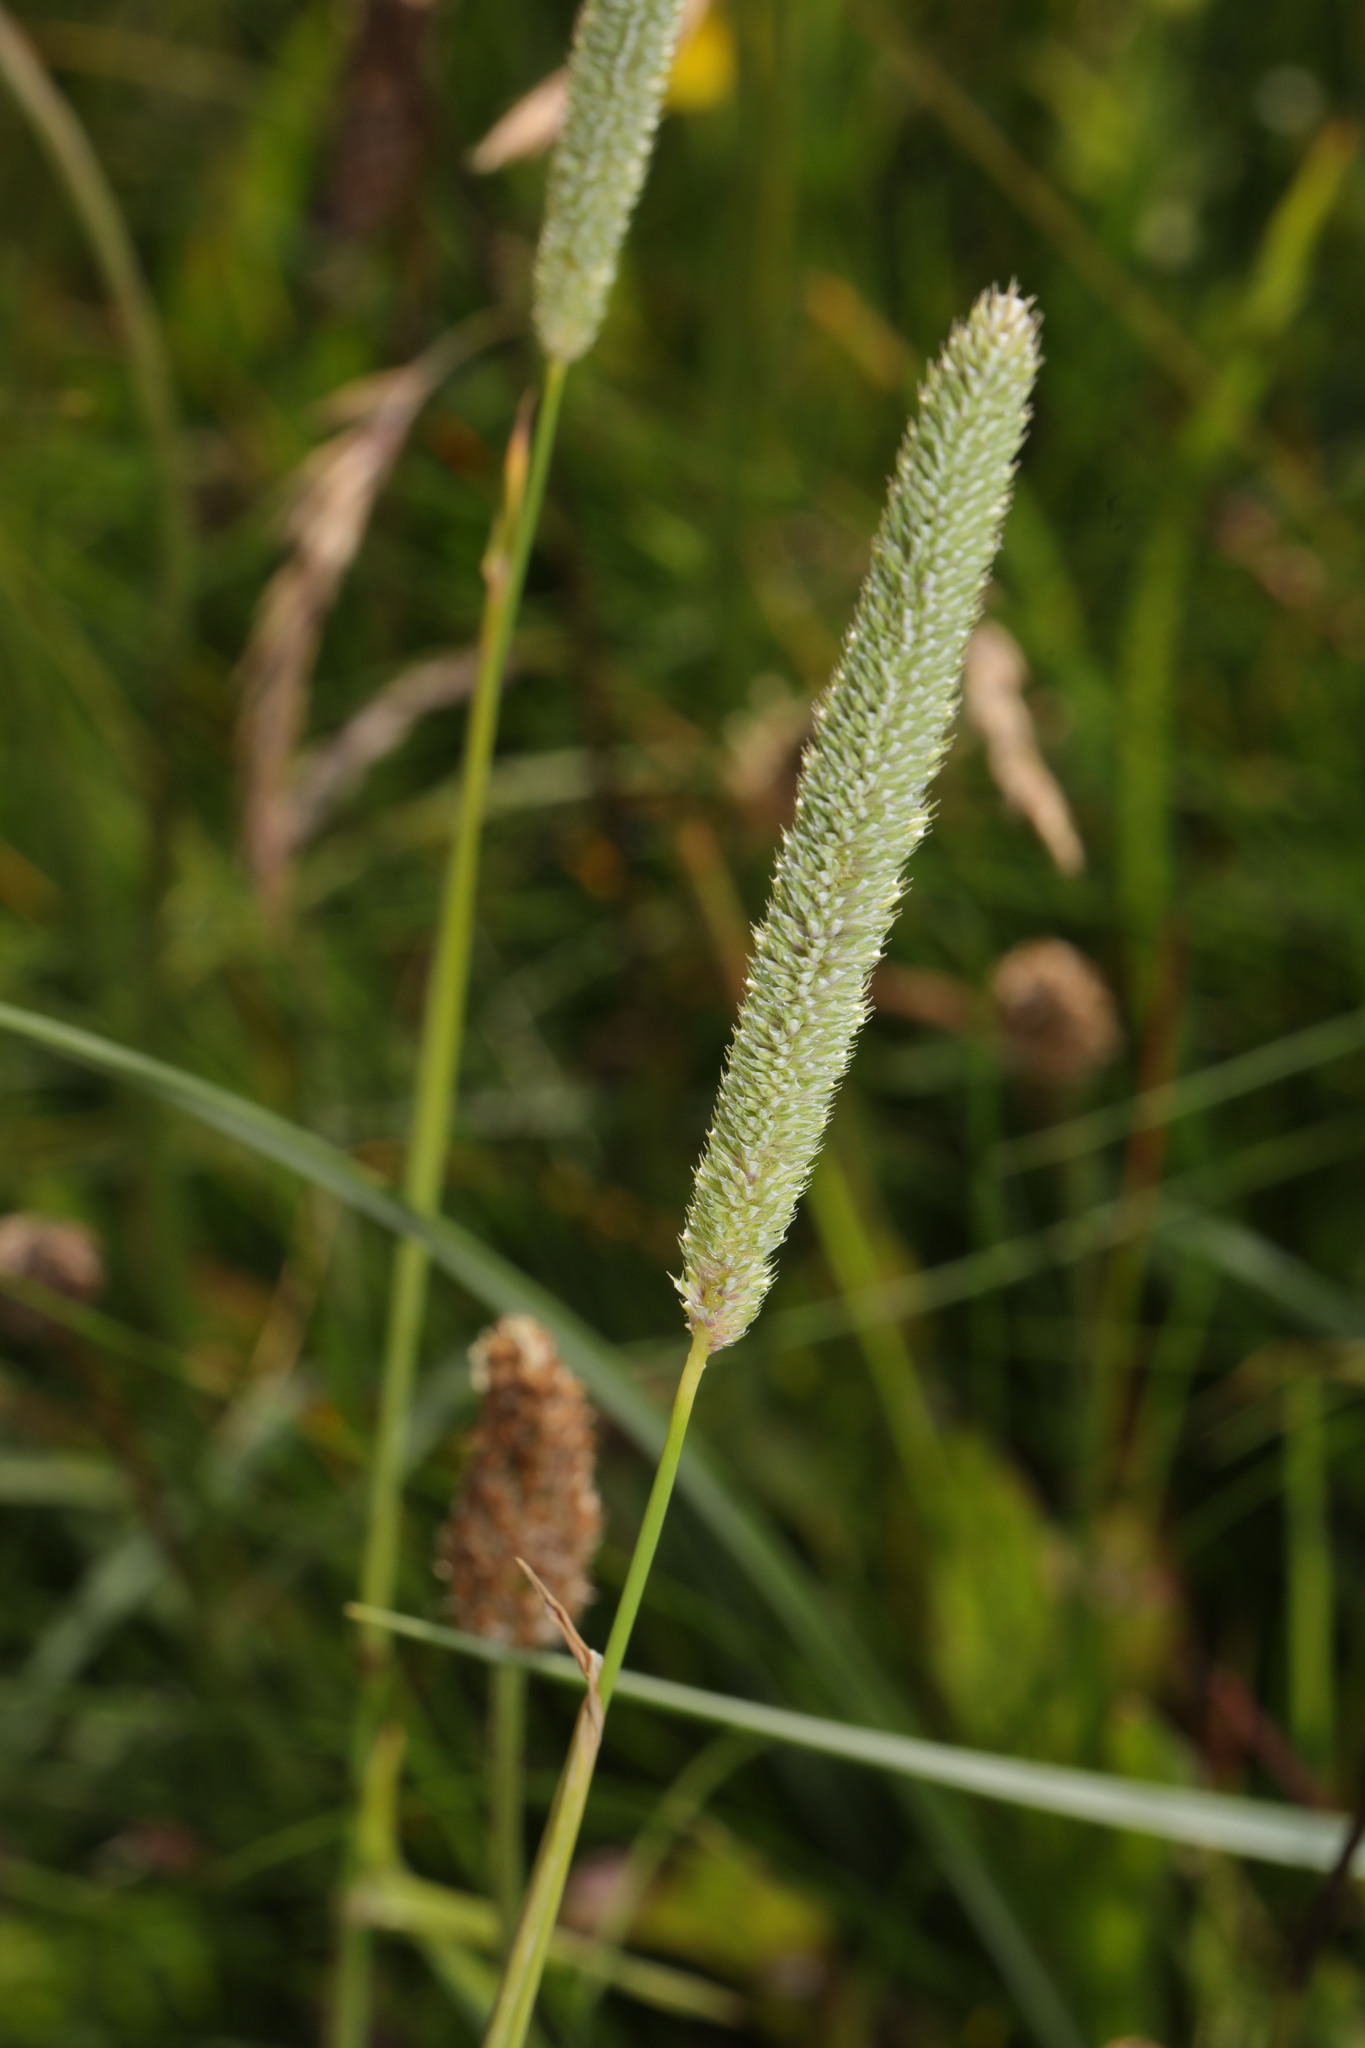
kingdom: Plantae
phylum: Tracheophyta
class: Liliopsida
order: Poales
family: Poaceae
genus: Phleum
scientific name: Phleum pratense
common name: Timothy grass
